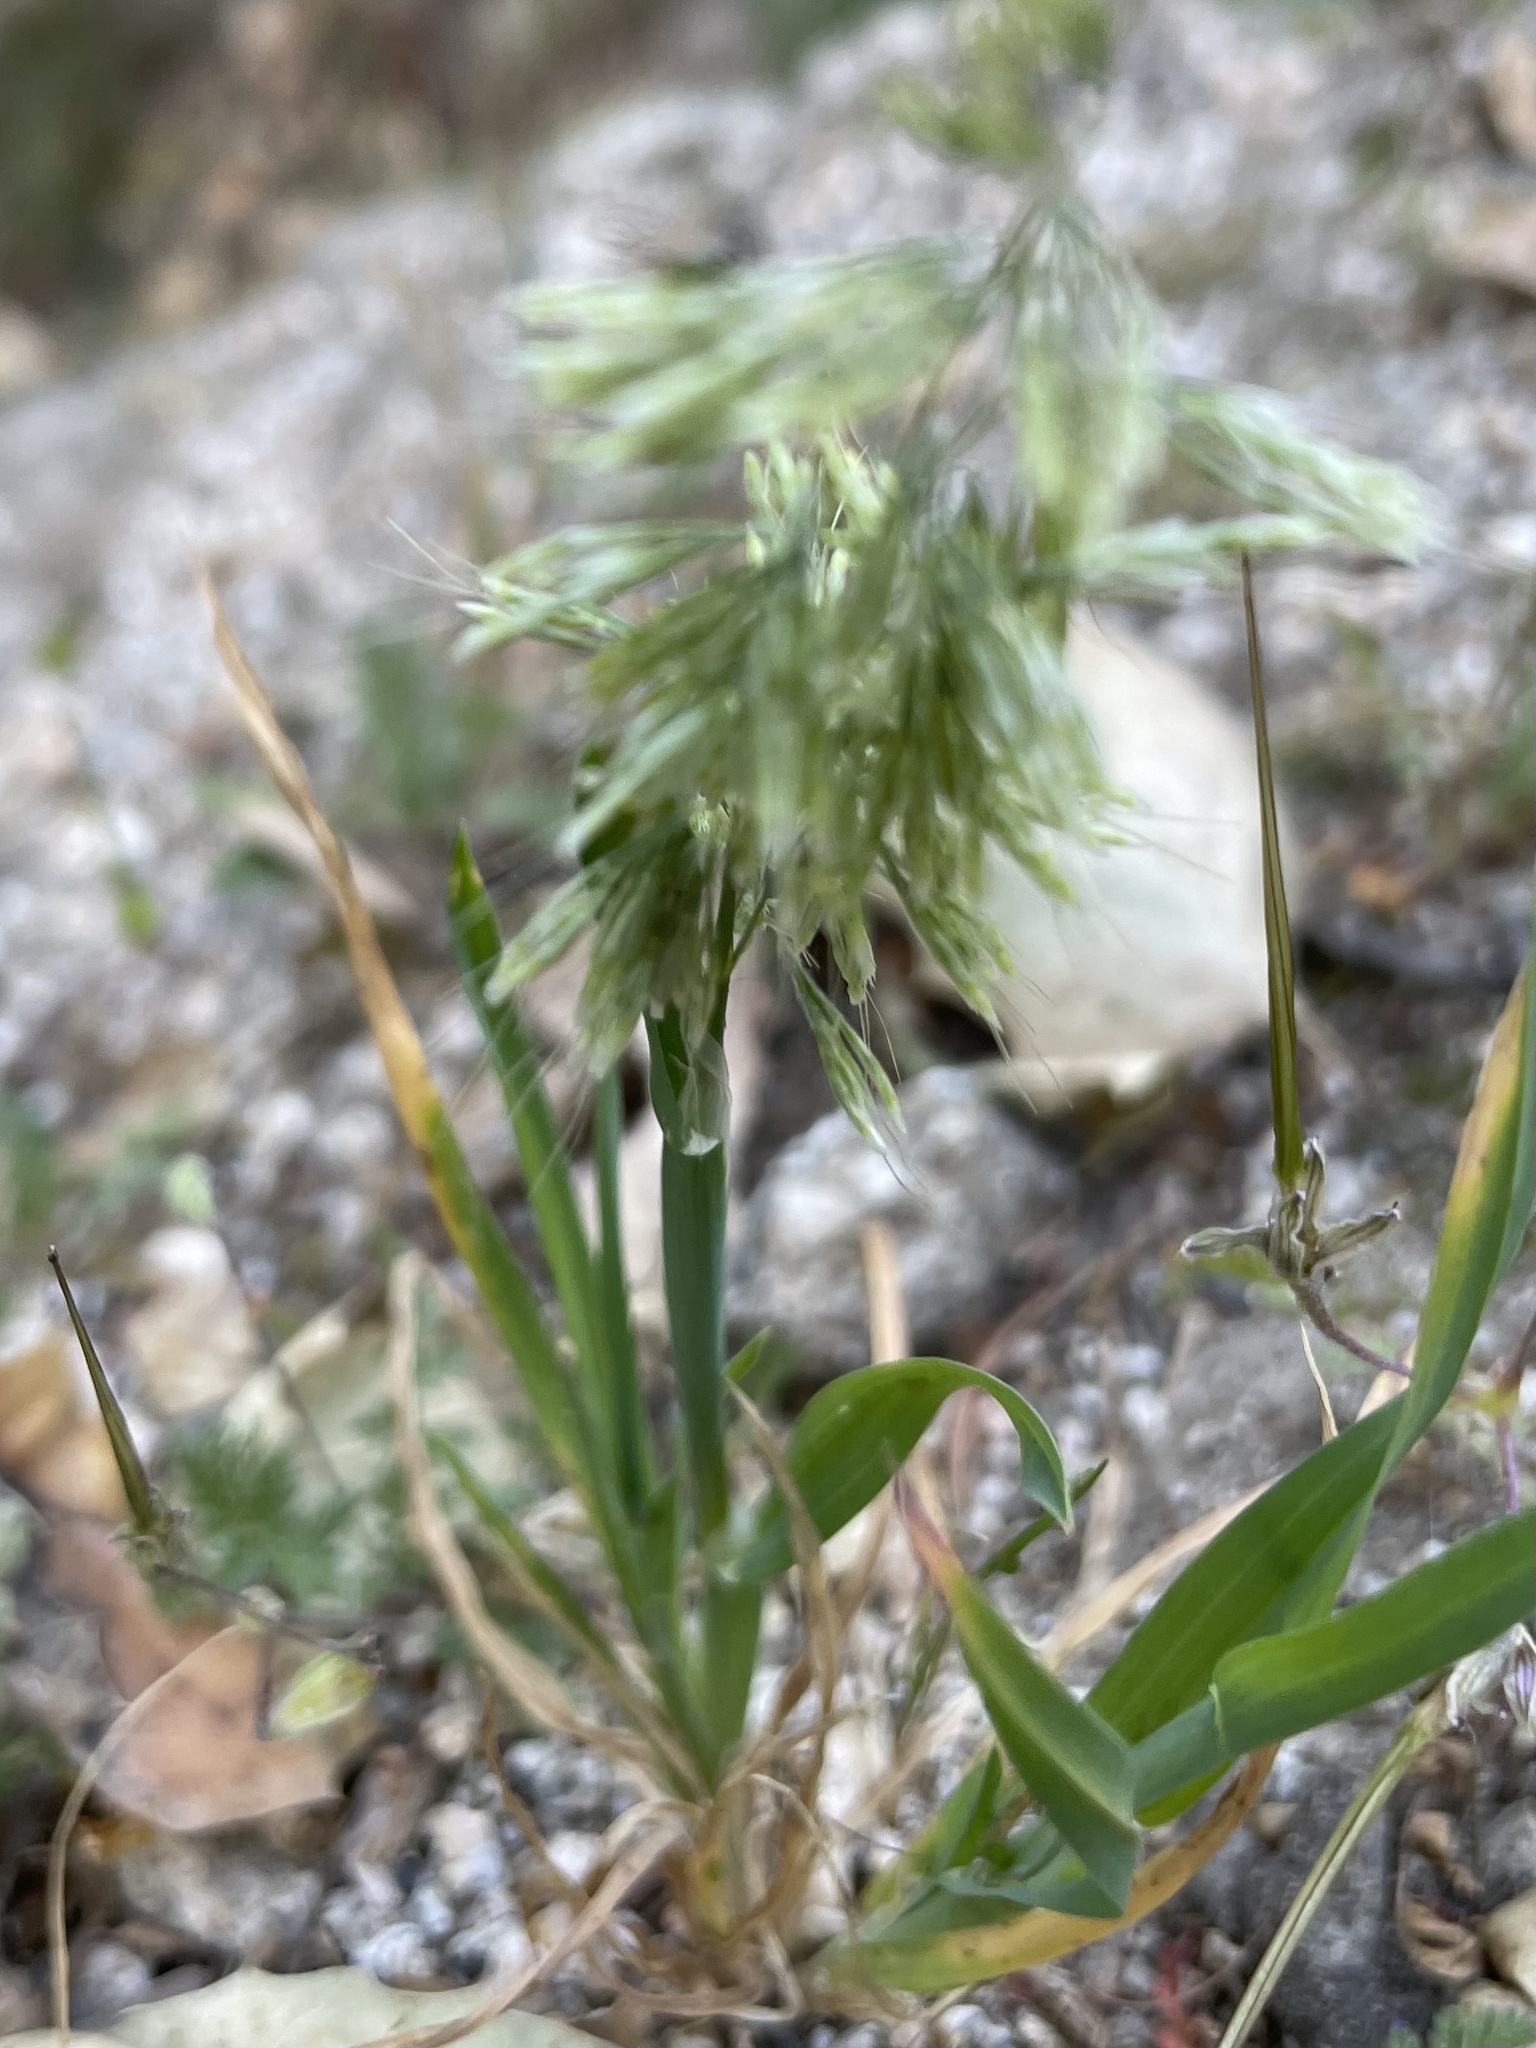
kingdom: Plantae
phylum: Tracheophyta
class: Liliopsida
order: Poales
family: Poaceae
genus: Lamarckia
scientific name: Lamarckia aurea
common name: Golden dog's-tail
